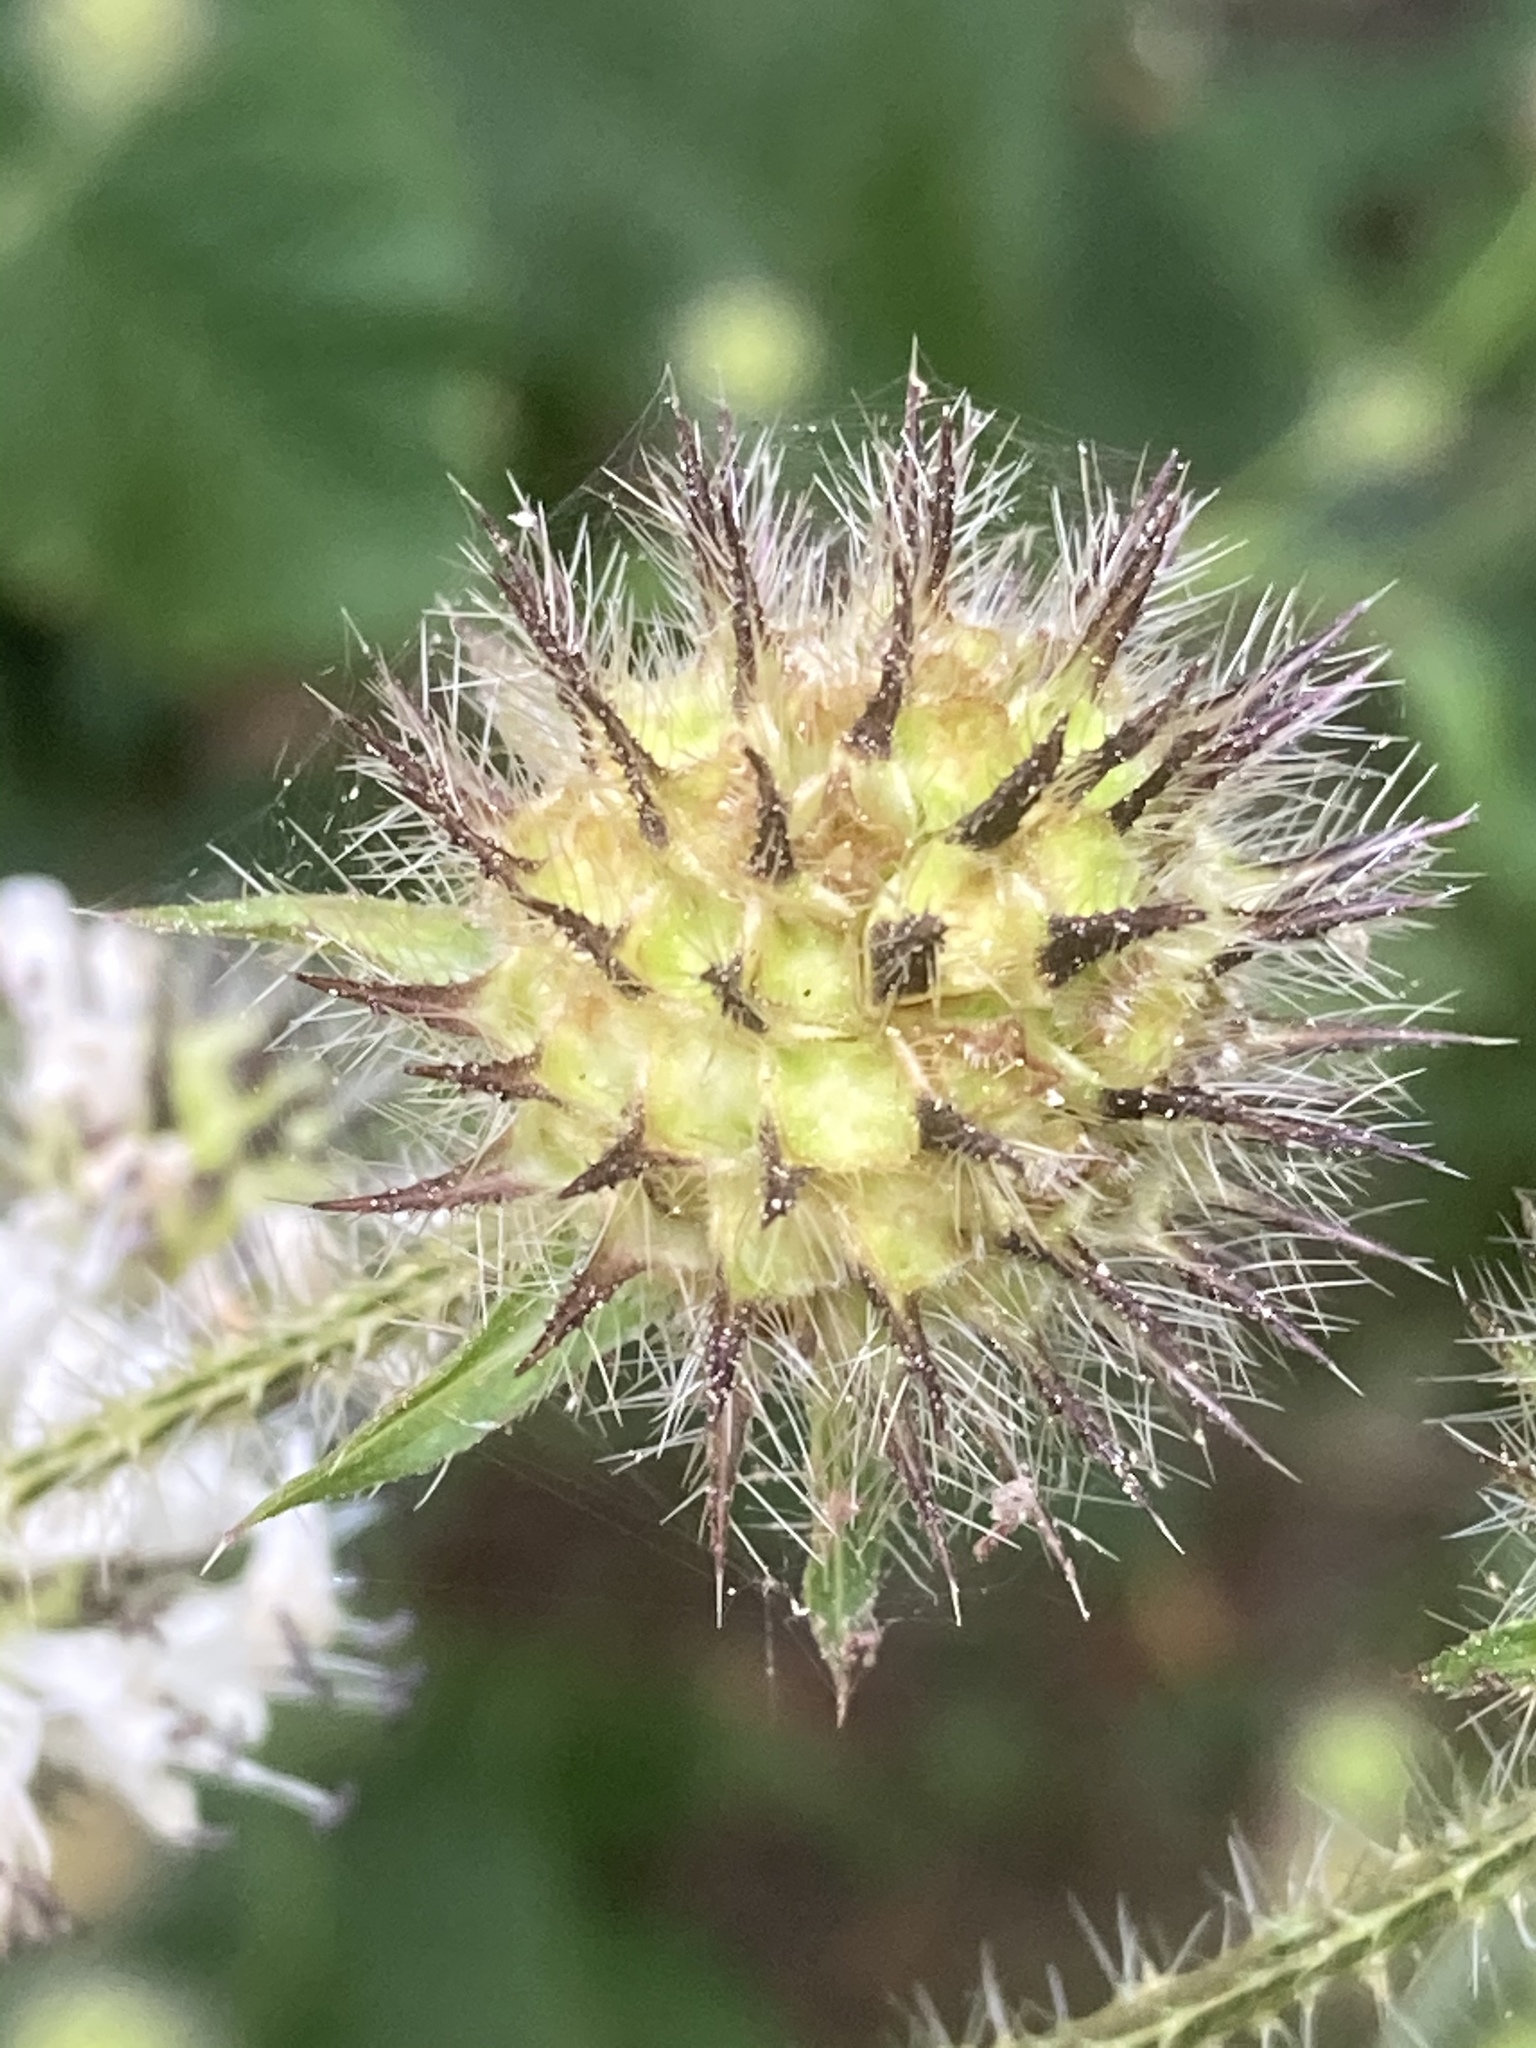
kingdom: Plantae
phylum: Tracheophyta
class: Magnoliopsida
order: Dipsacales
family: Caprifoliaceae
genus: Dipsacus
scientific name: Dipsacus pilosus
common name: Small teasel
